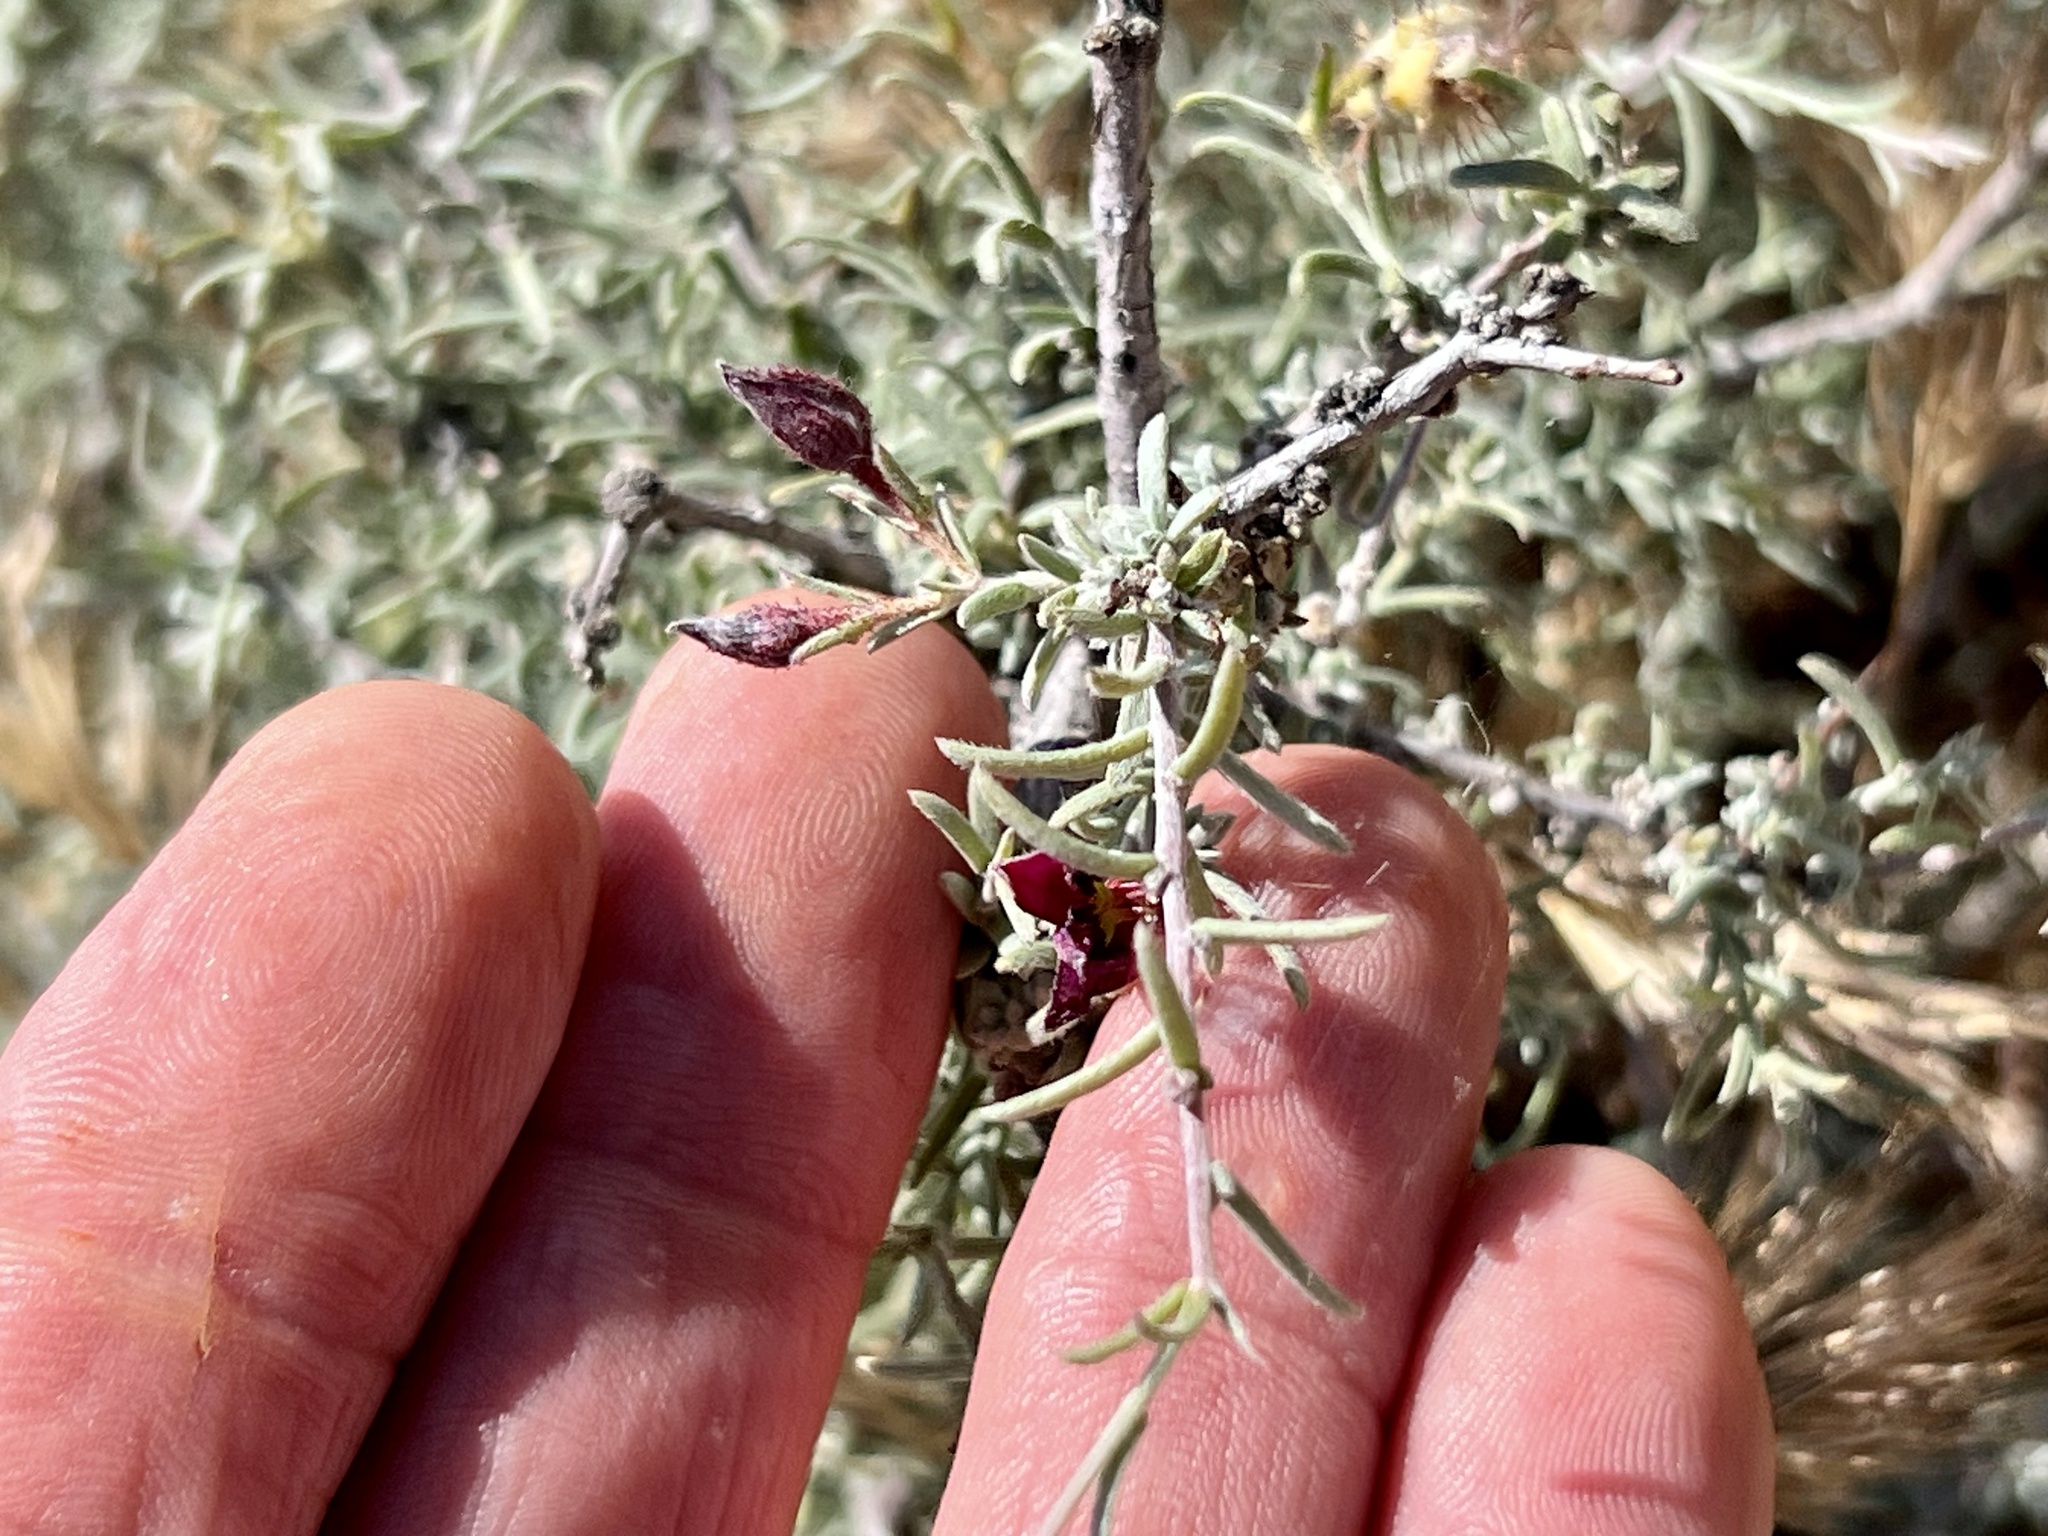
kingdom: Plantae
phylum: Tracheophyta
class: Magnoliopsida
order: Zygophyllales
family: Krameriaceae
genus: Krameria
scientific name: Krameria erecta
